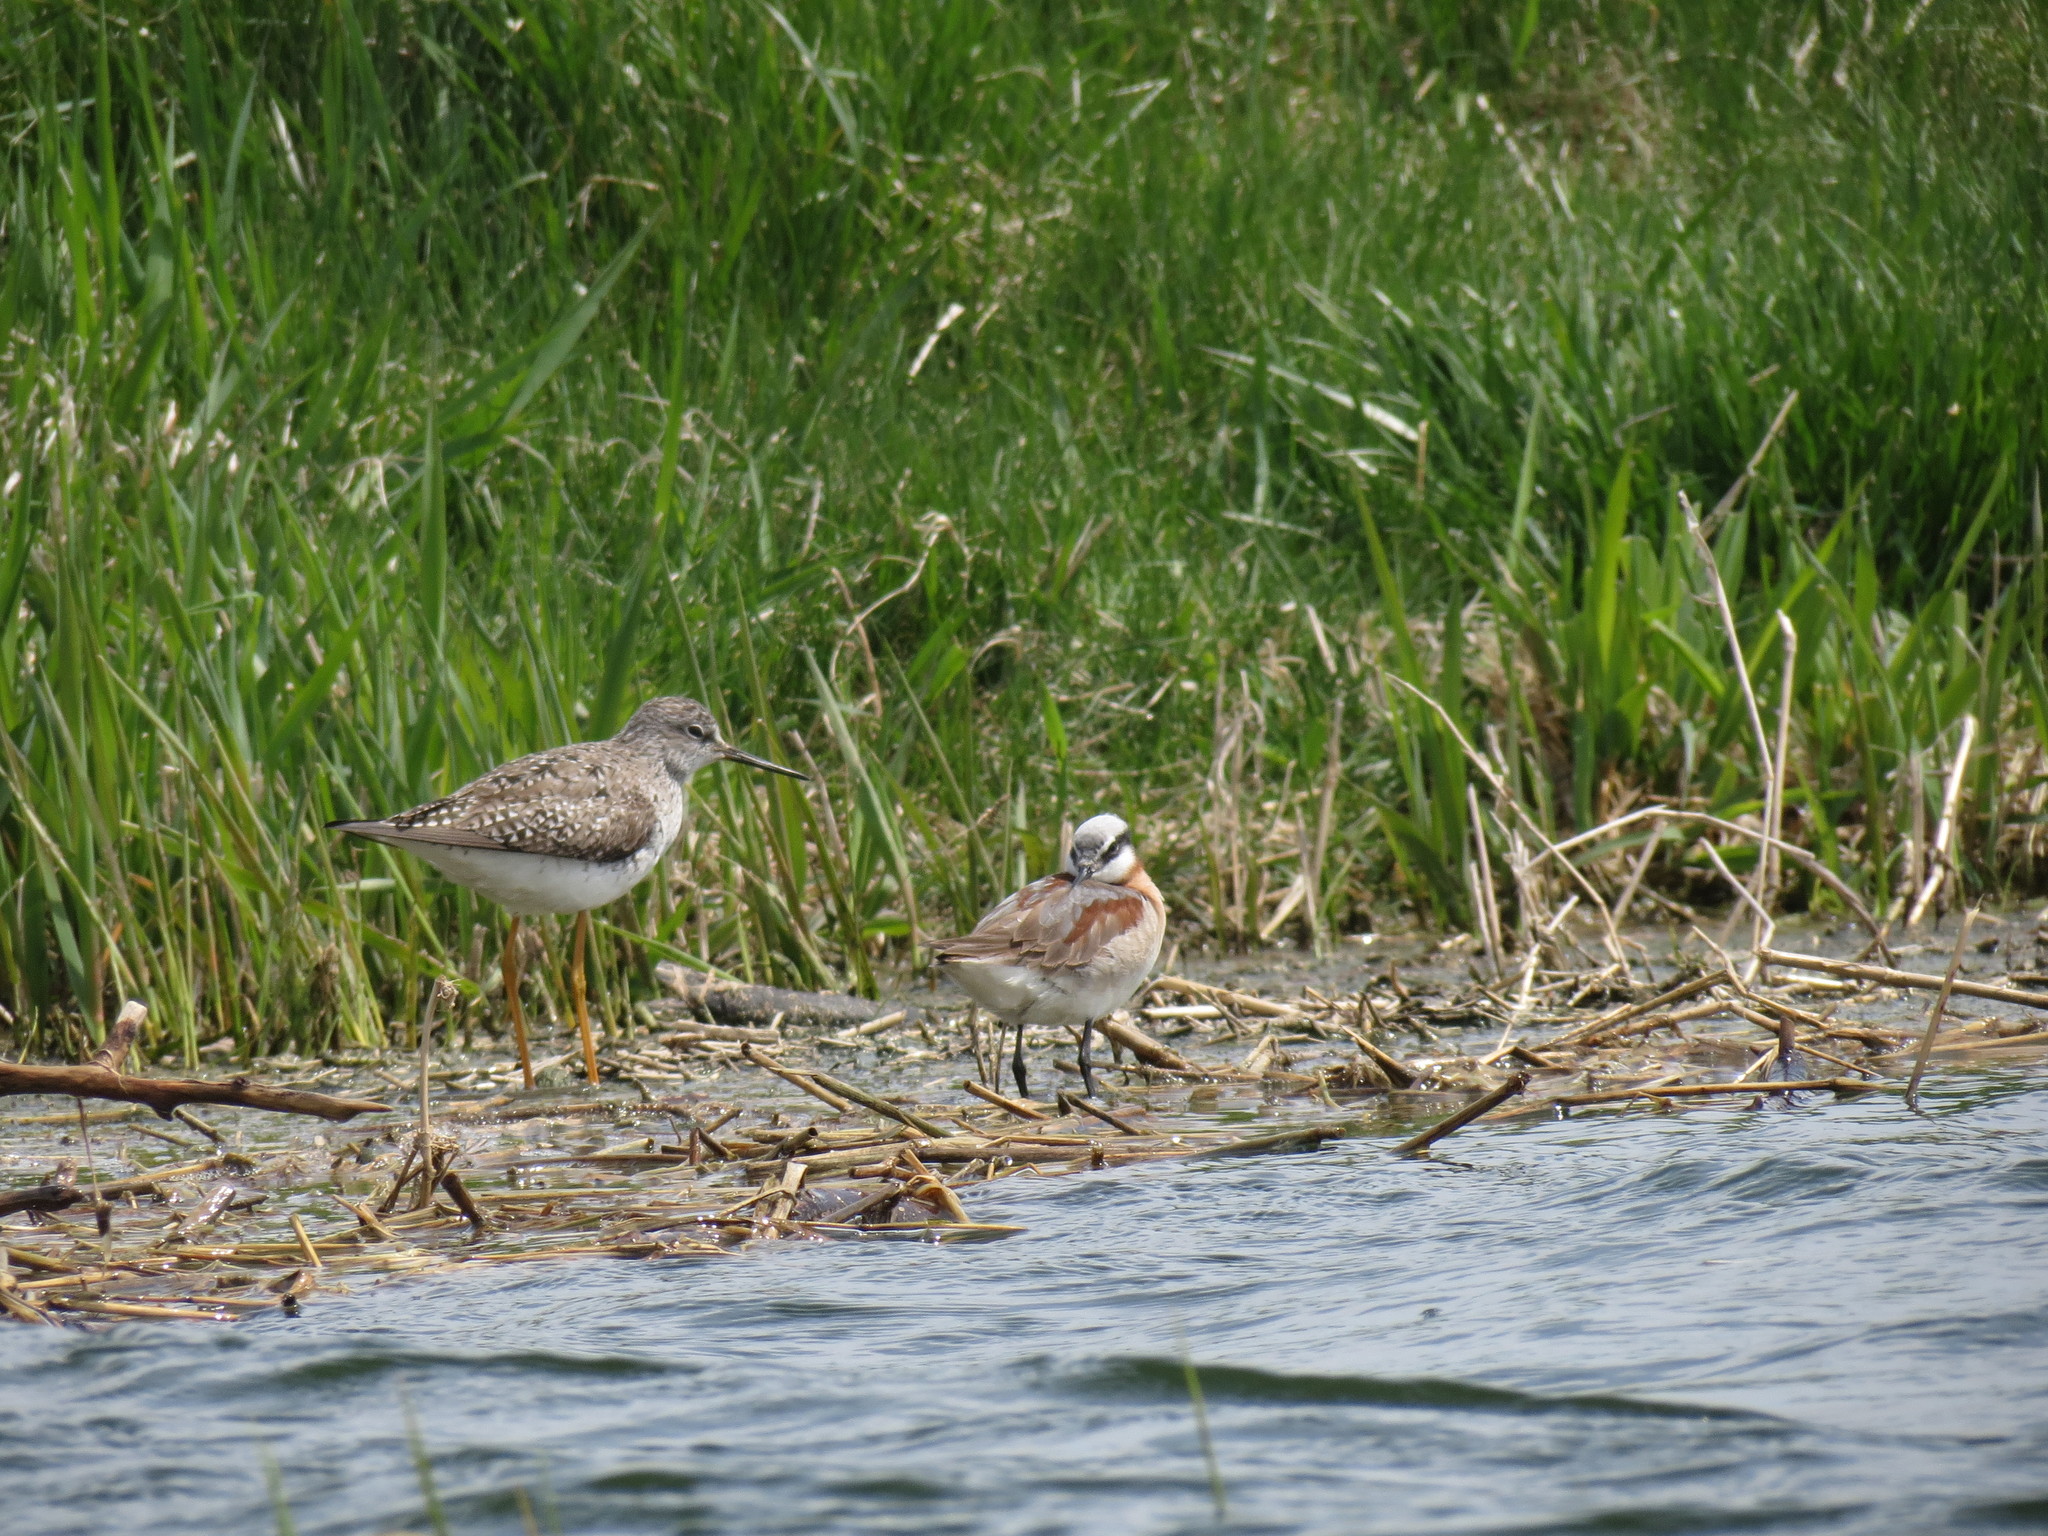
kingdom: Animalia
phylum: Chordata
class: Aves
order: Charadriiformes
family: Scolopacidae
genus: Phalaropus
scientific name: Phalaropus tricolor
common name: Wilson's phalarope
